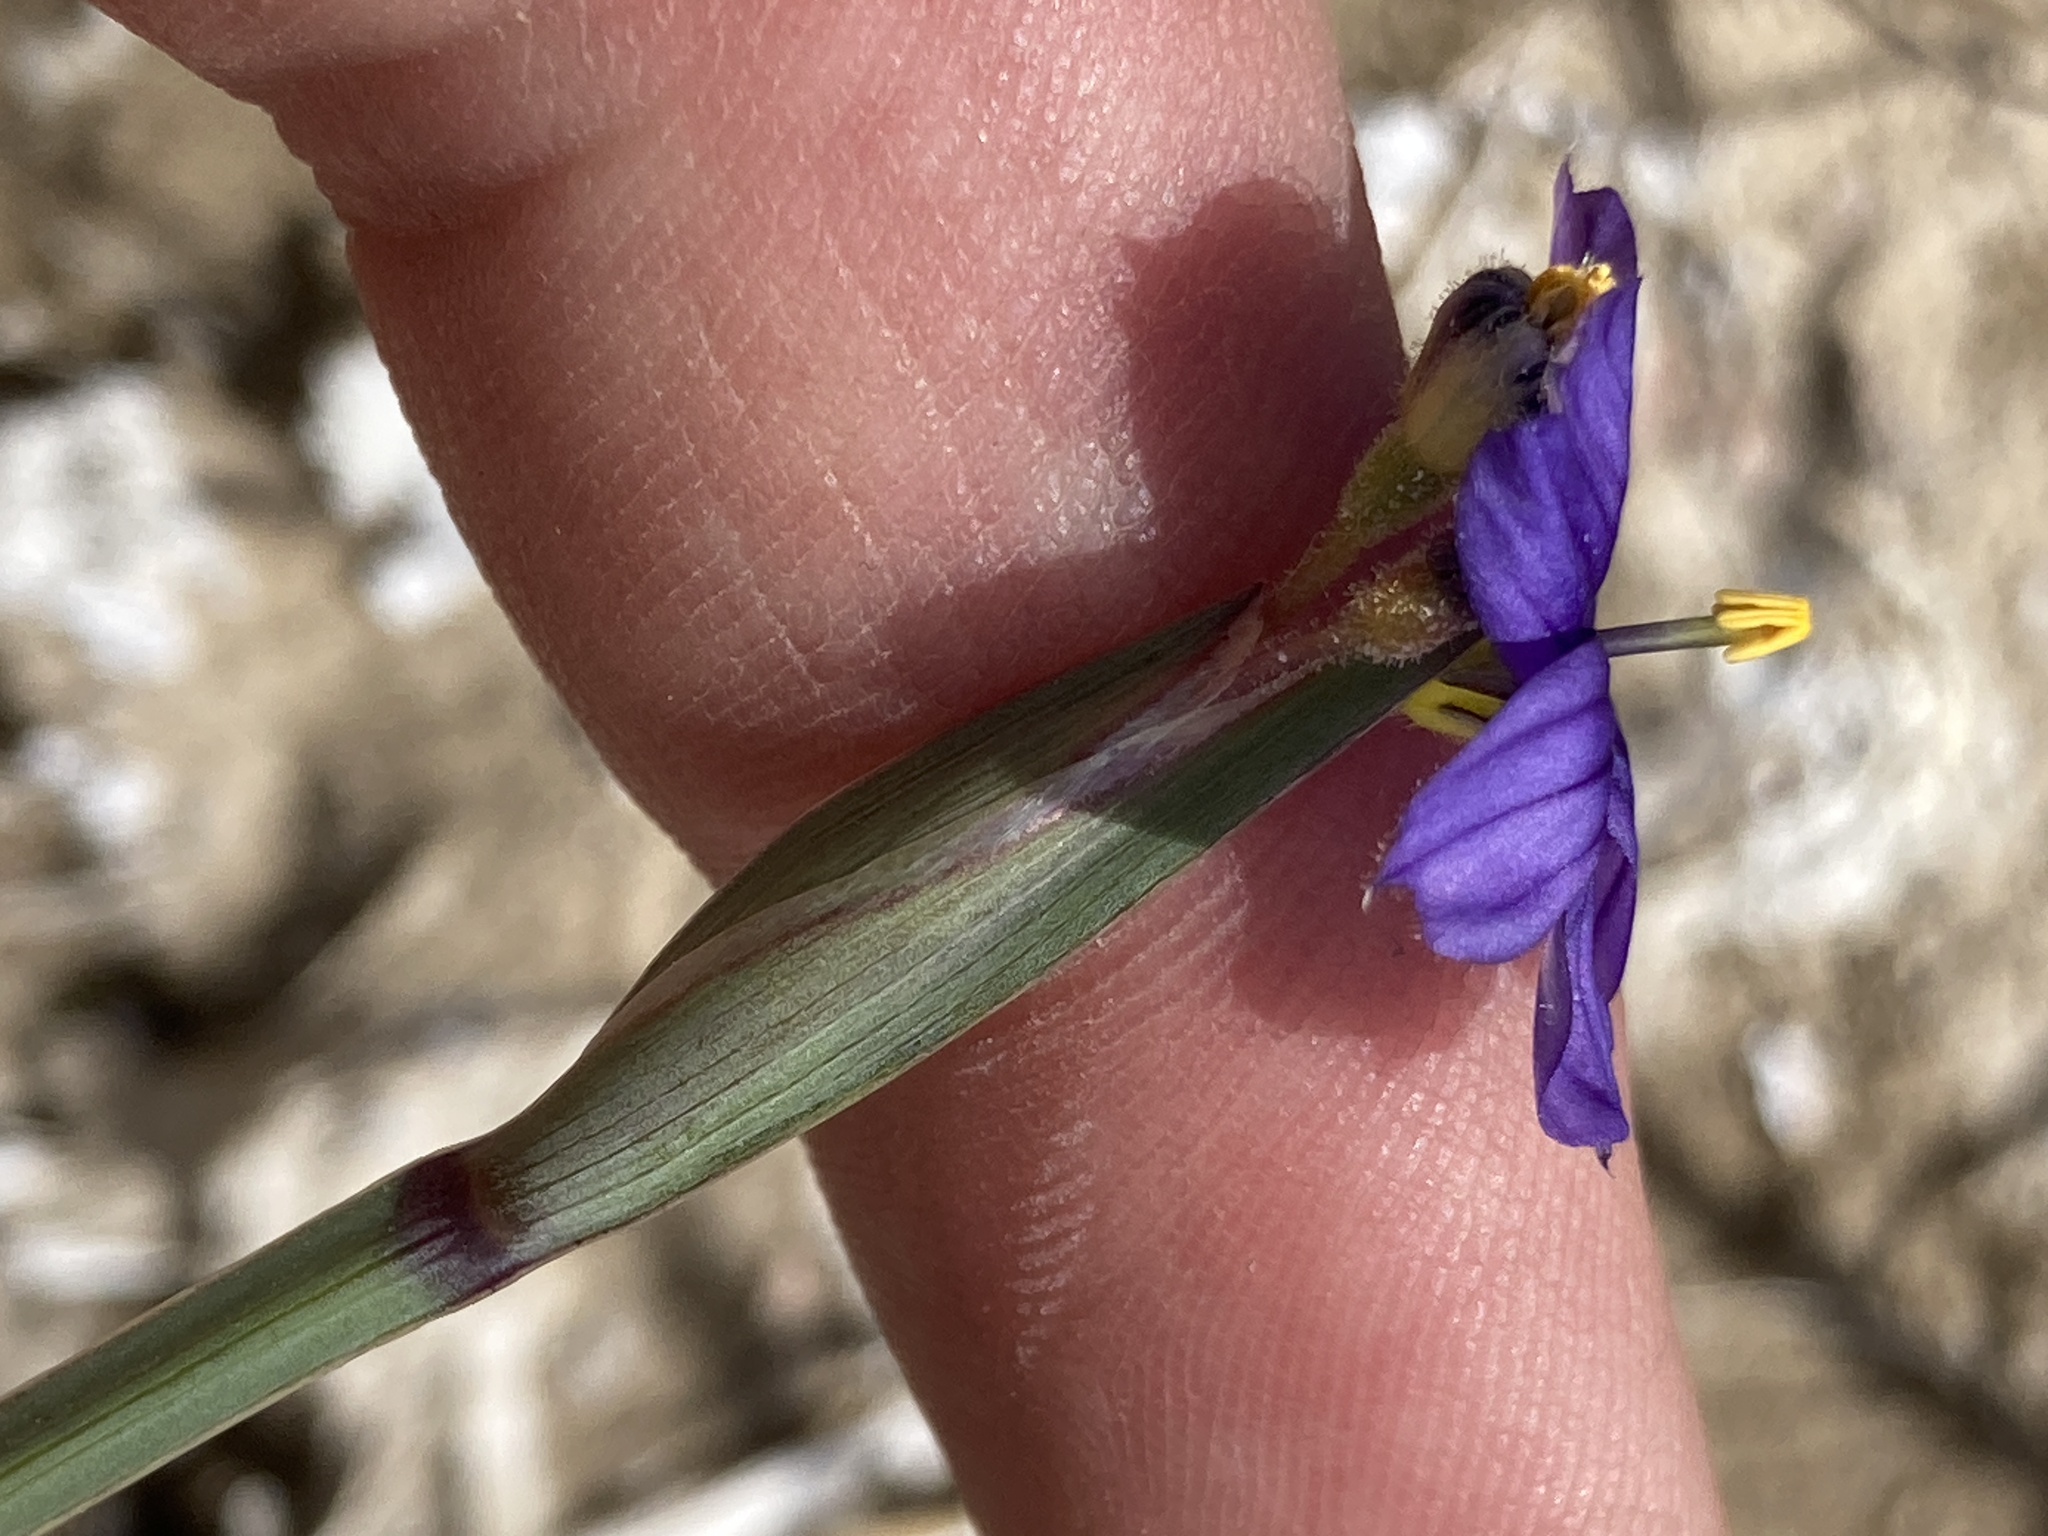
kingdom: Plantae
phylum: Tracheophyta
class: Liliopsida
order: Asparagales
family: Iridaceae
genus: Sisyrinchium
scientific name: Sisyrinchium halophilum
